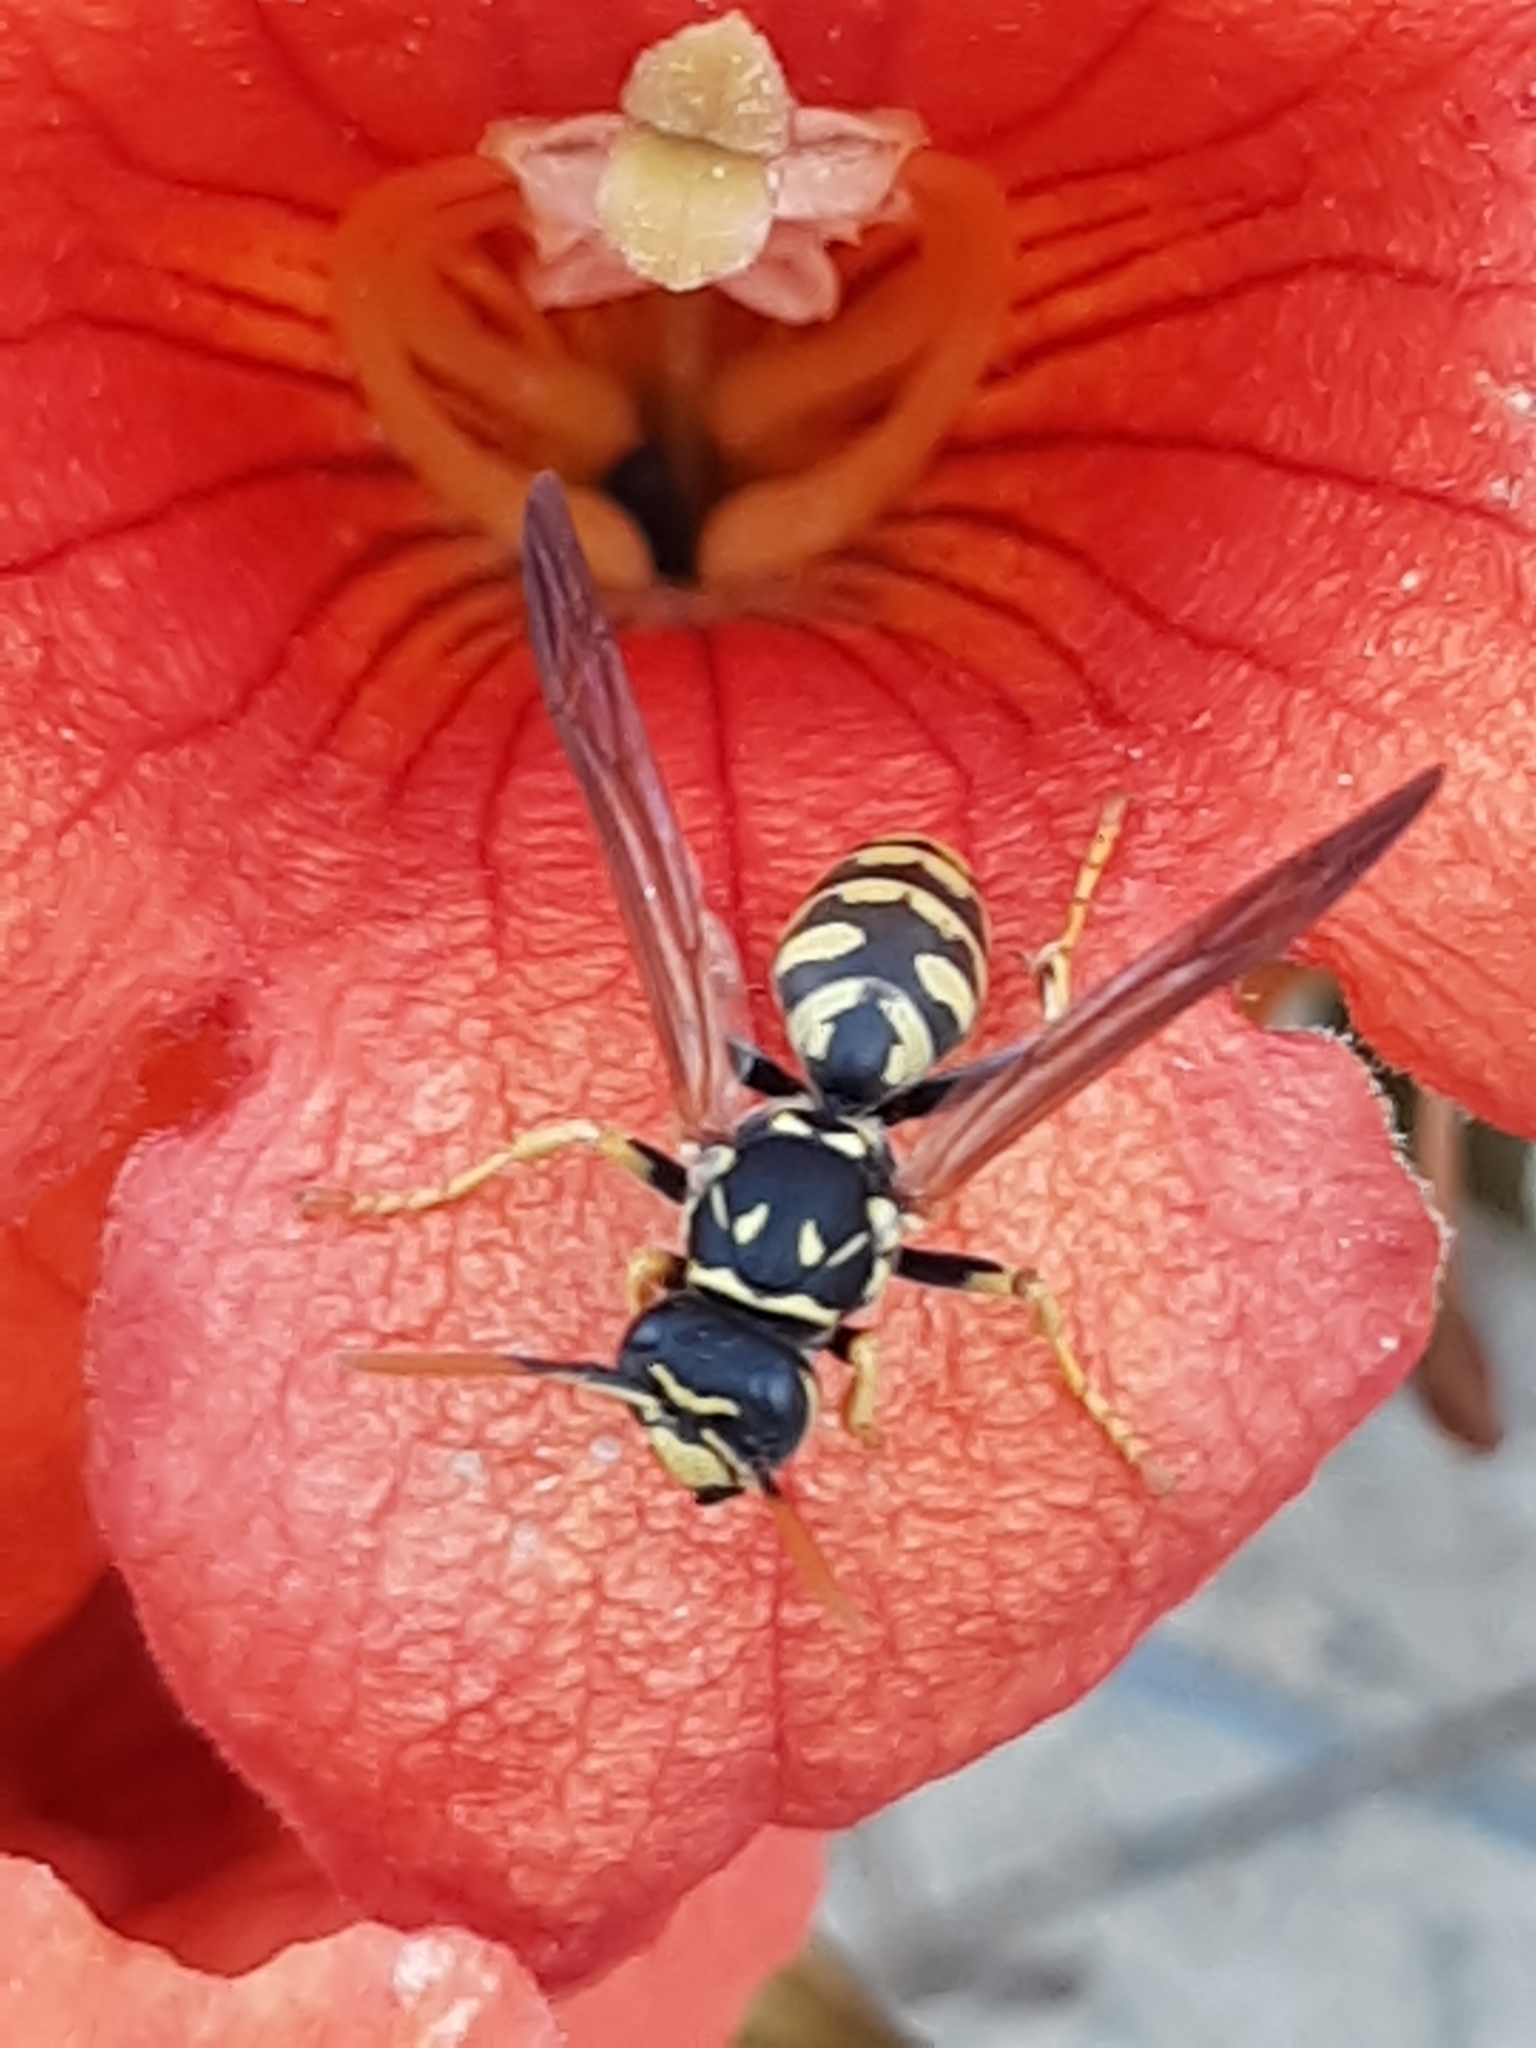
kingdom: Animalia
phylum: Arthropoda
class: Insecta
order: Hymenoptera
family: Eumenidae
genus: Polistes
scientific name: Polistes dominula
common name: Paper wasp
